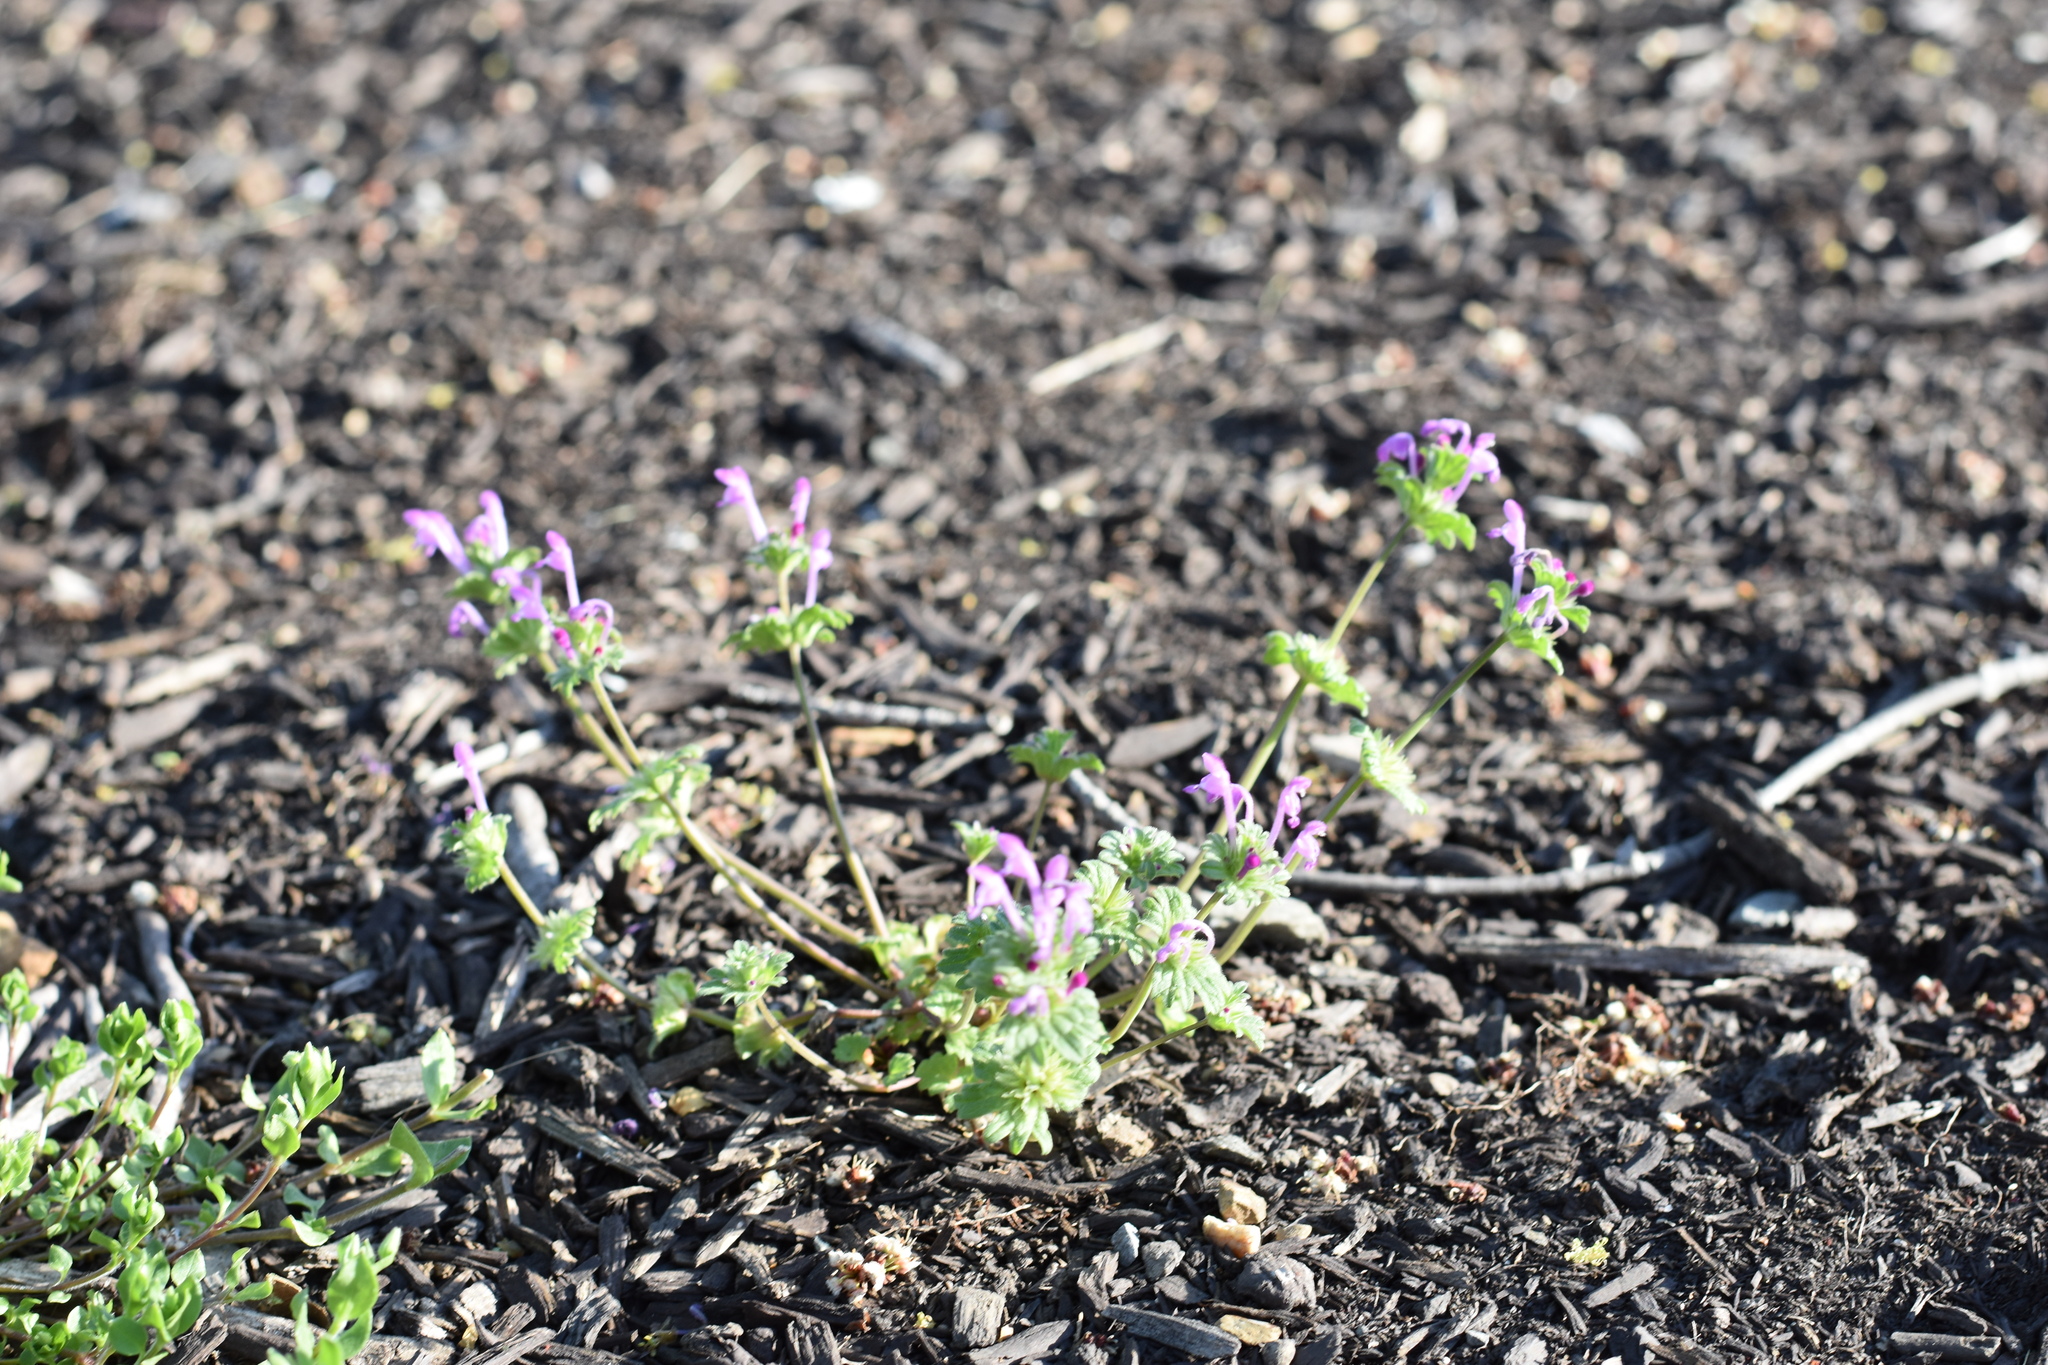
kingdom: Plantae
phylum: Tracheophyta
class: Magnoliopsida
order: Lamiales
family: Lamiaceae
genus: Lamium
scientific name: Lamium amplexicaule
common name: Henbit dead-nettle
